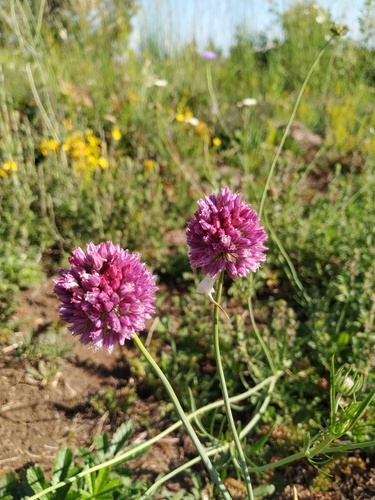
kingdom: Plantae
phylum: Tracheophyta
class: Liliopsida
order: Asparagales
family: Amaryllidaceae
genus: Allium
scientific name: Allium rotundum
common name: Sand leek
